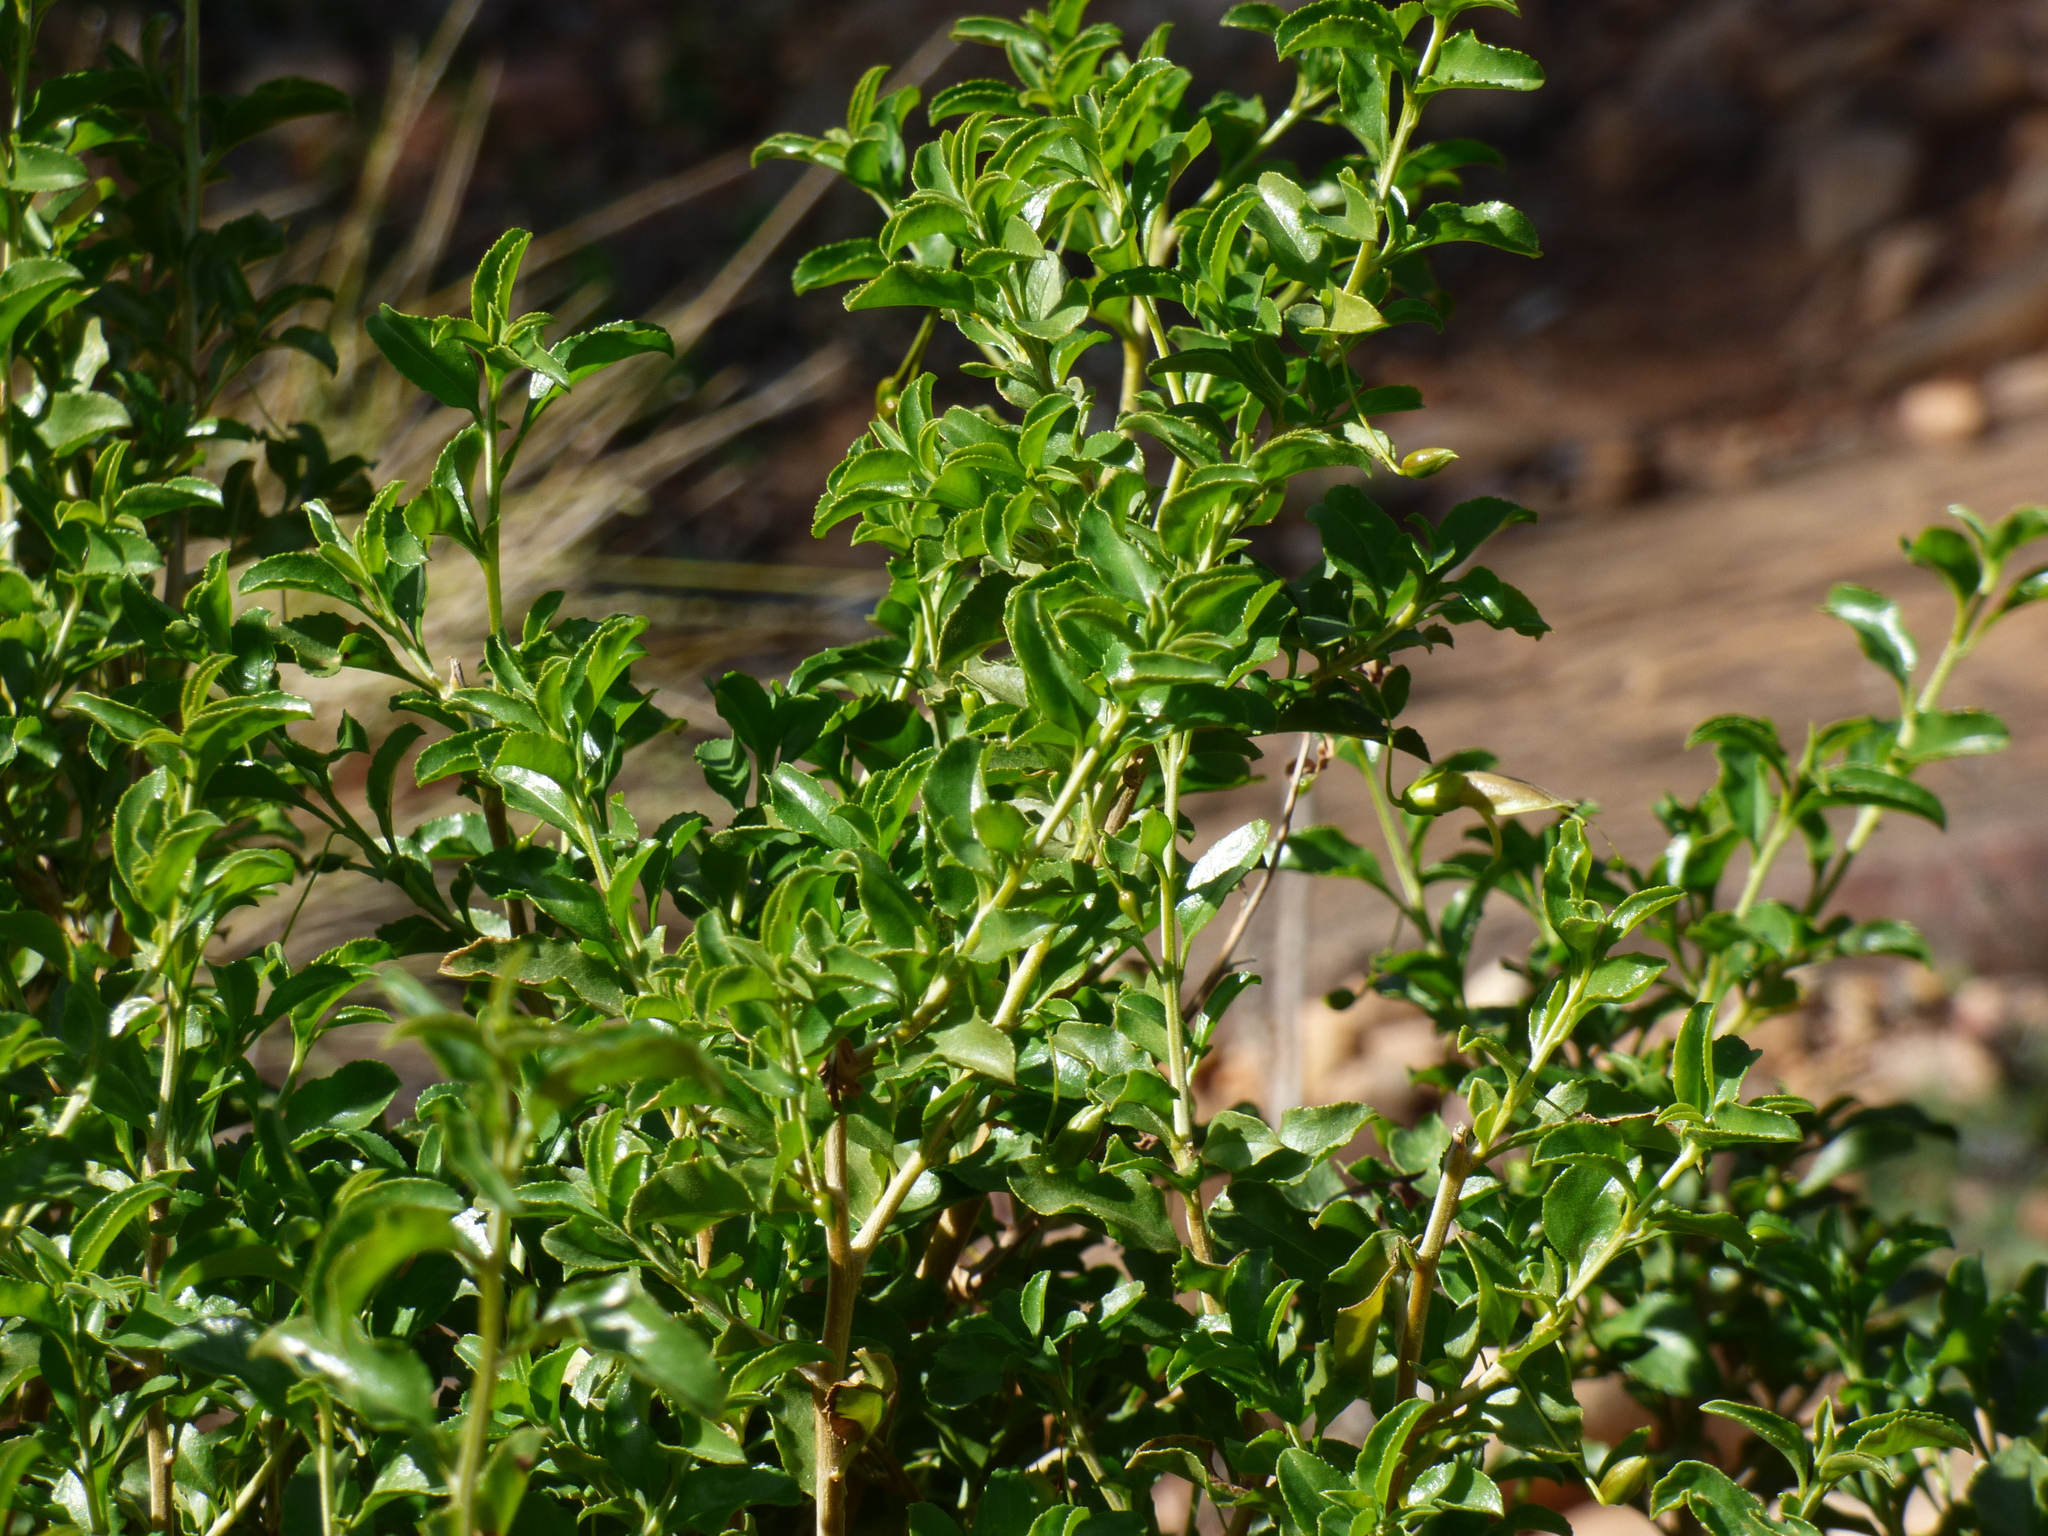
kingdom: Plantae
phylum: Tracheophyta
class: Magnoliopsida
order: Lamiales
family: Scrophulariaceae
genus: Eremophila
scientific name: Eremophila serrulata
